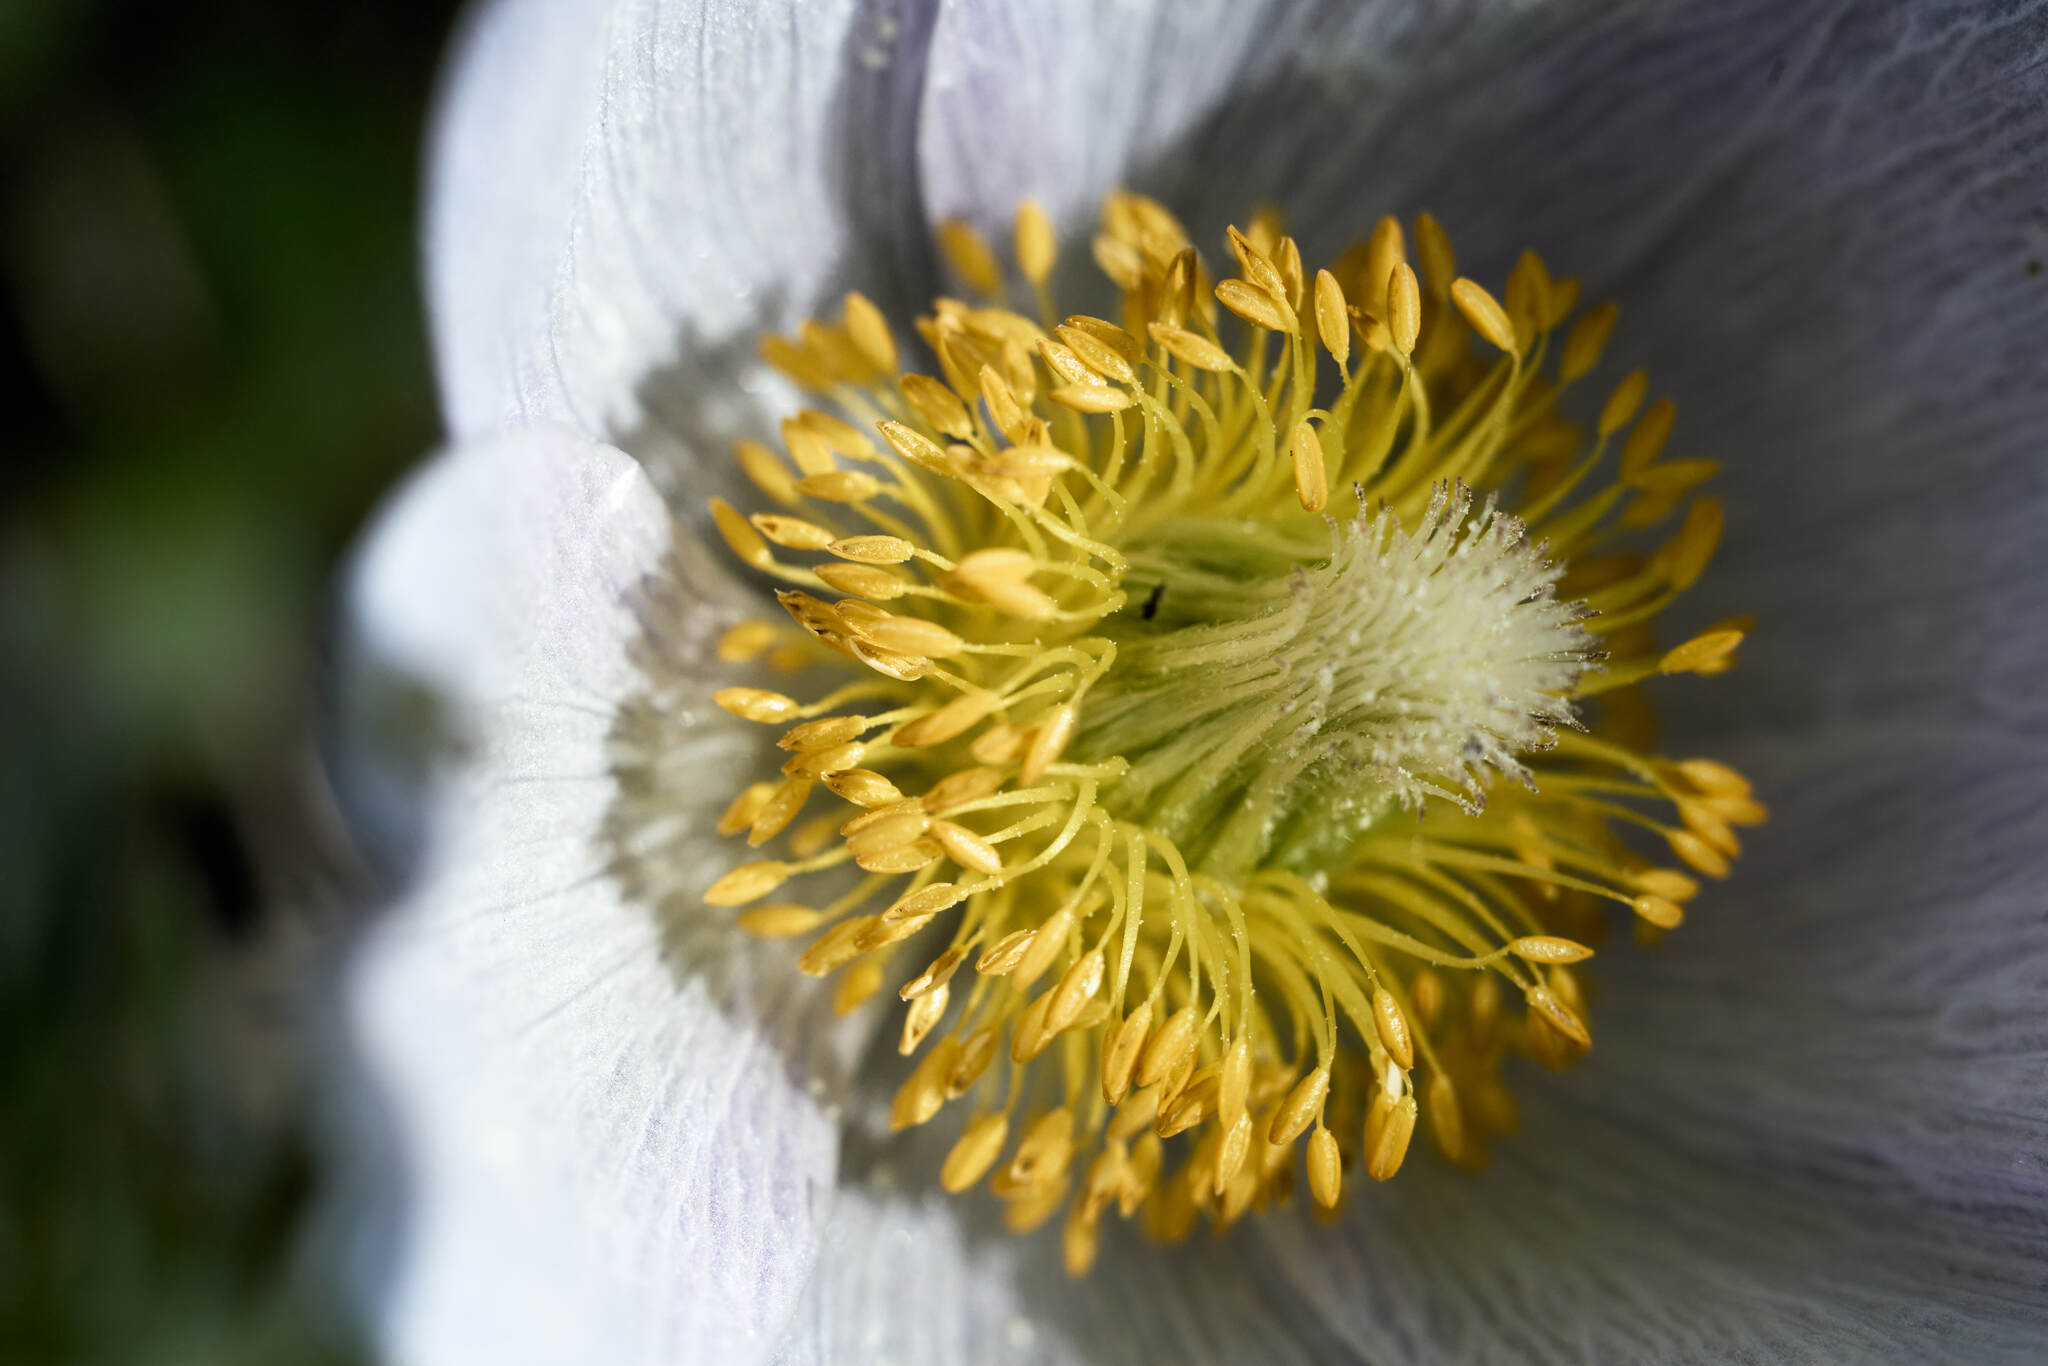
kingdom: Plantae
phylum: Tracheophyta
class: Magnoliopsida
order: Ranunculales
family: Ranunculaceae
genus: Pulsatilla
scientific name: Pulsatilla nuttalliana
